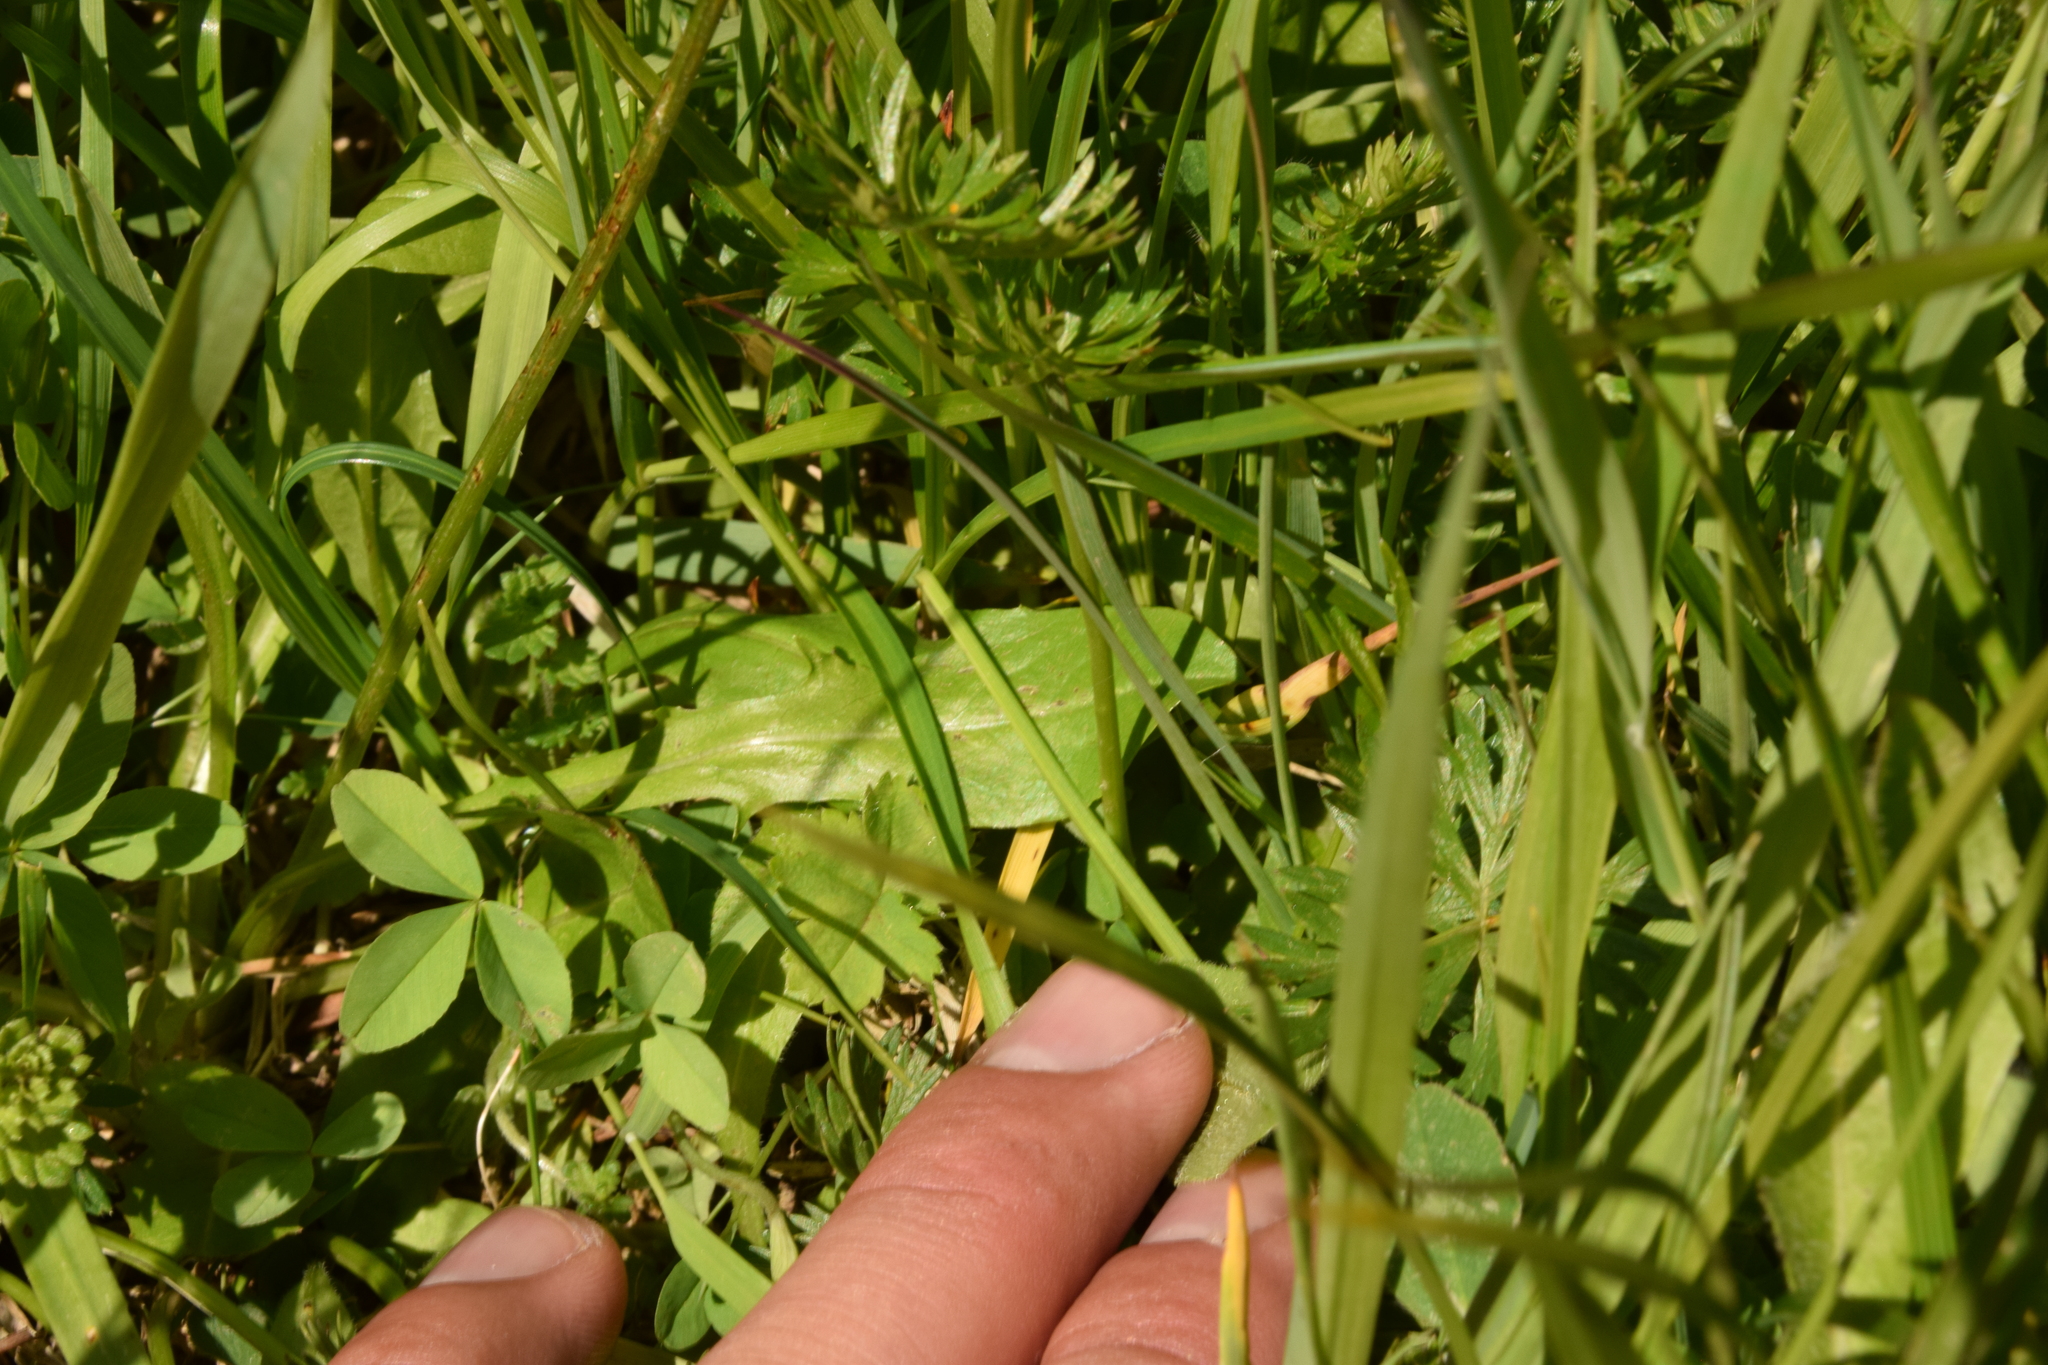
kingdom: Plantae
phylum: Tracheophyta
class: Magnoliopsida
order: Asterales
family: Asteraceae
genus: Crepis
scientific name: Crepis aurea
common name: Golden hawk's-beard
